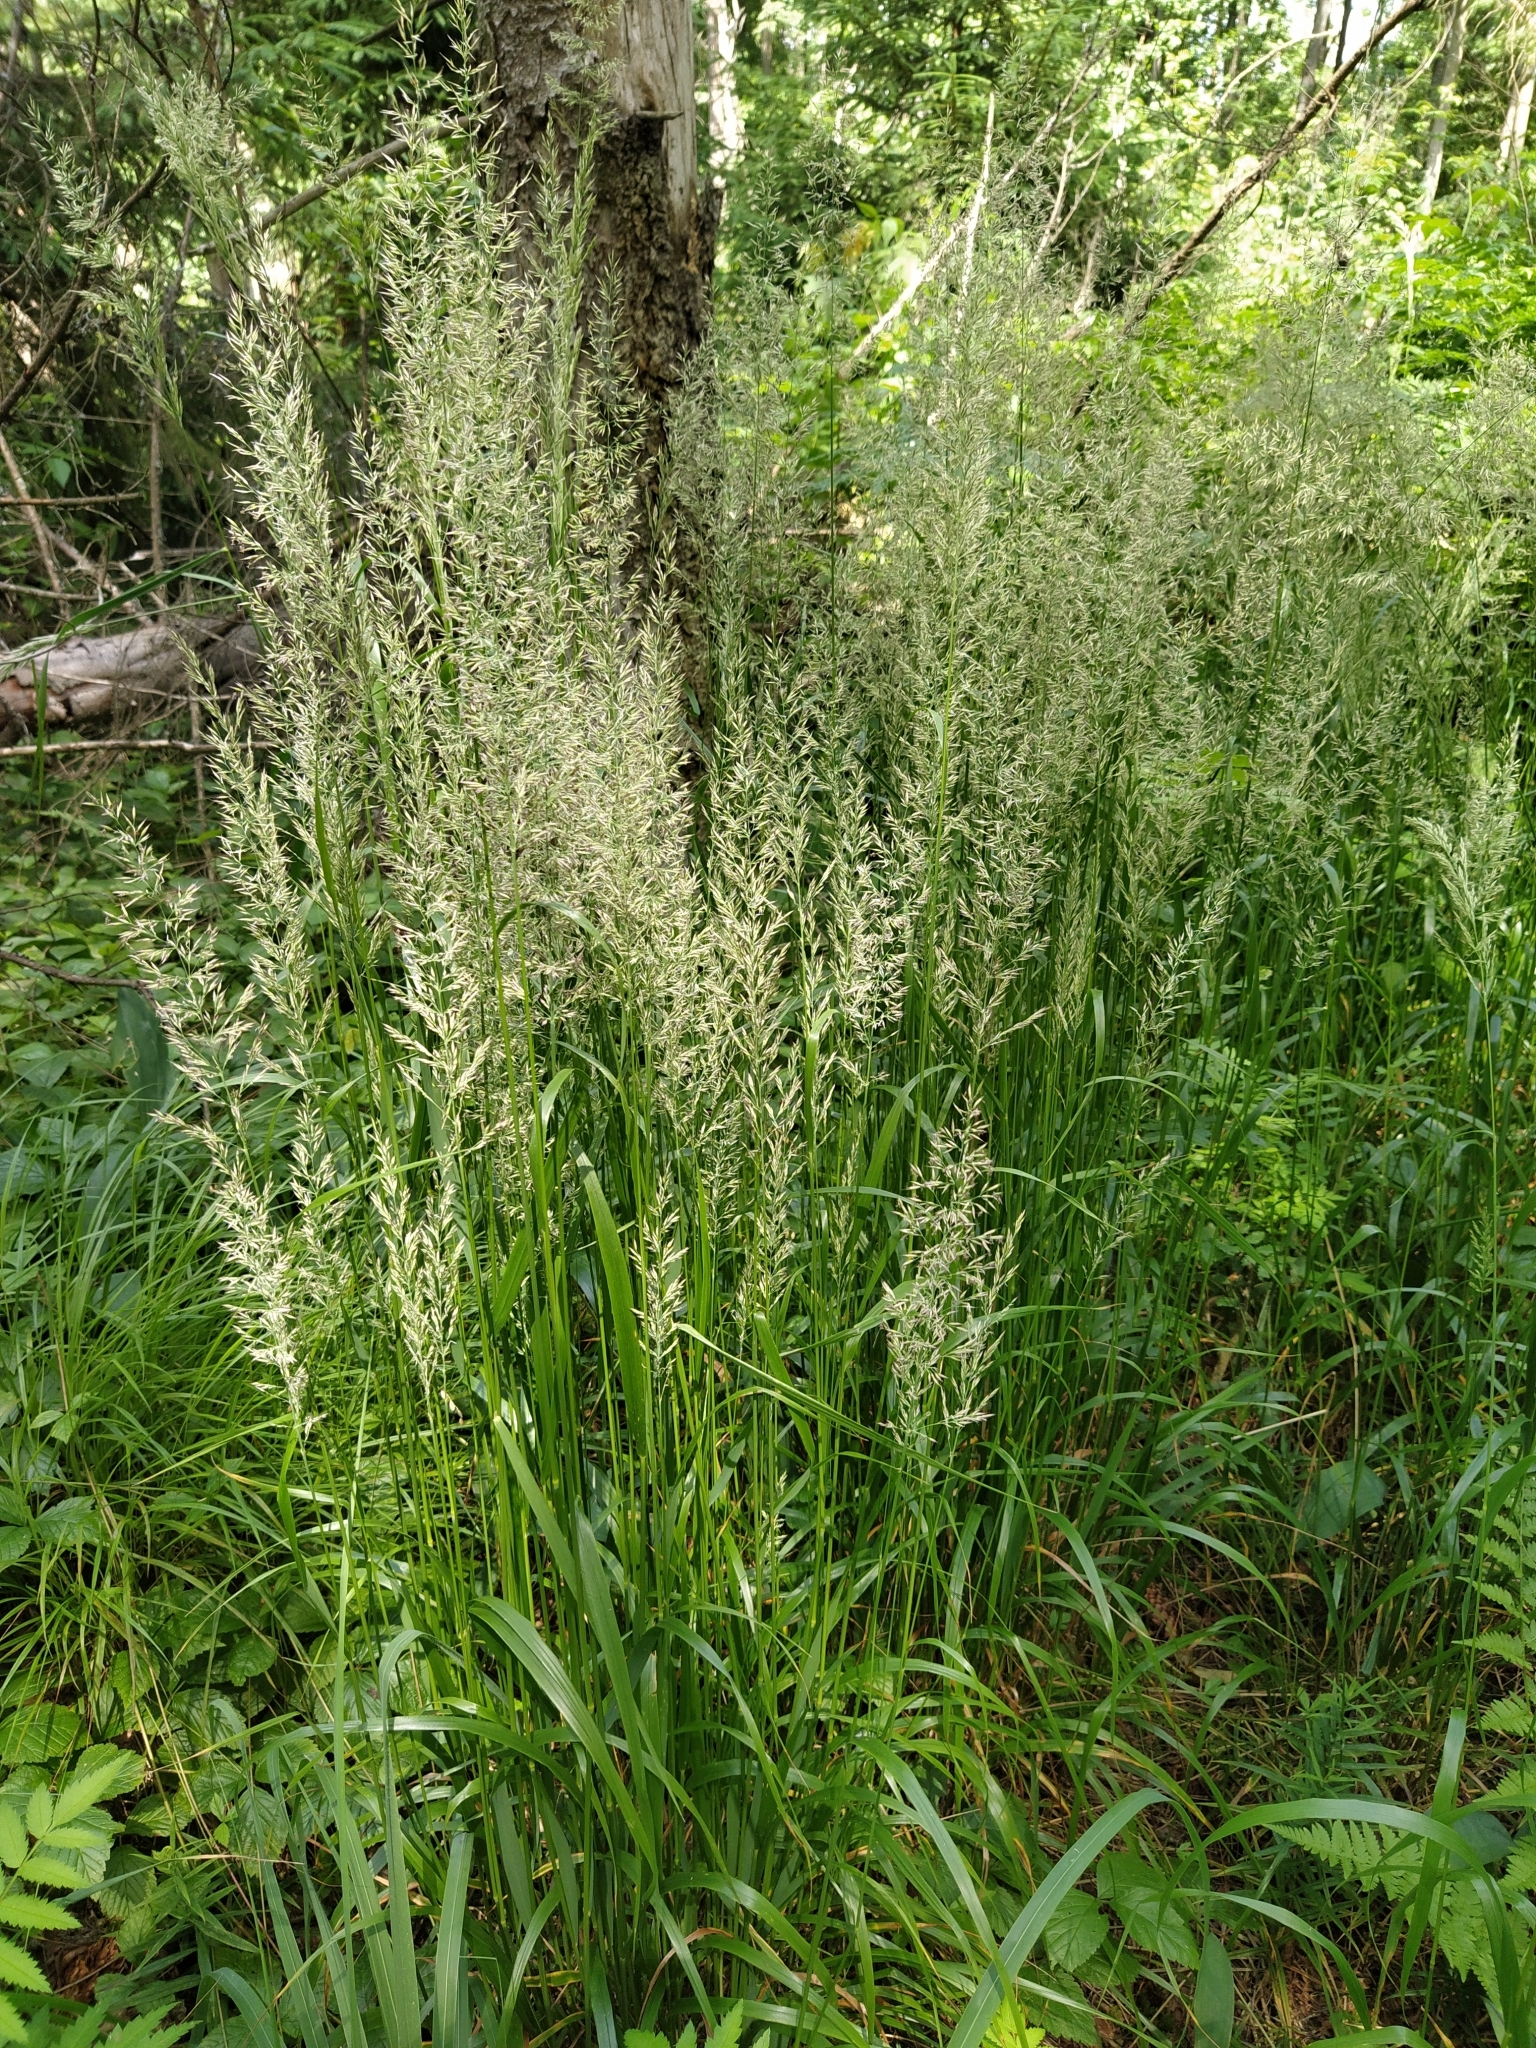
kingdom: Plantae
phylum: Tracheophyta
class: Liliopsida
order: Poales
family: Poaceae
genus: Calamagrostis
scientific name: Calamagrostis arundinacea
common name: Metskastik
